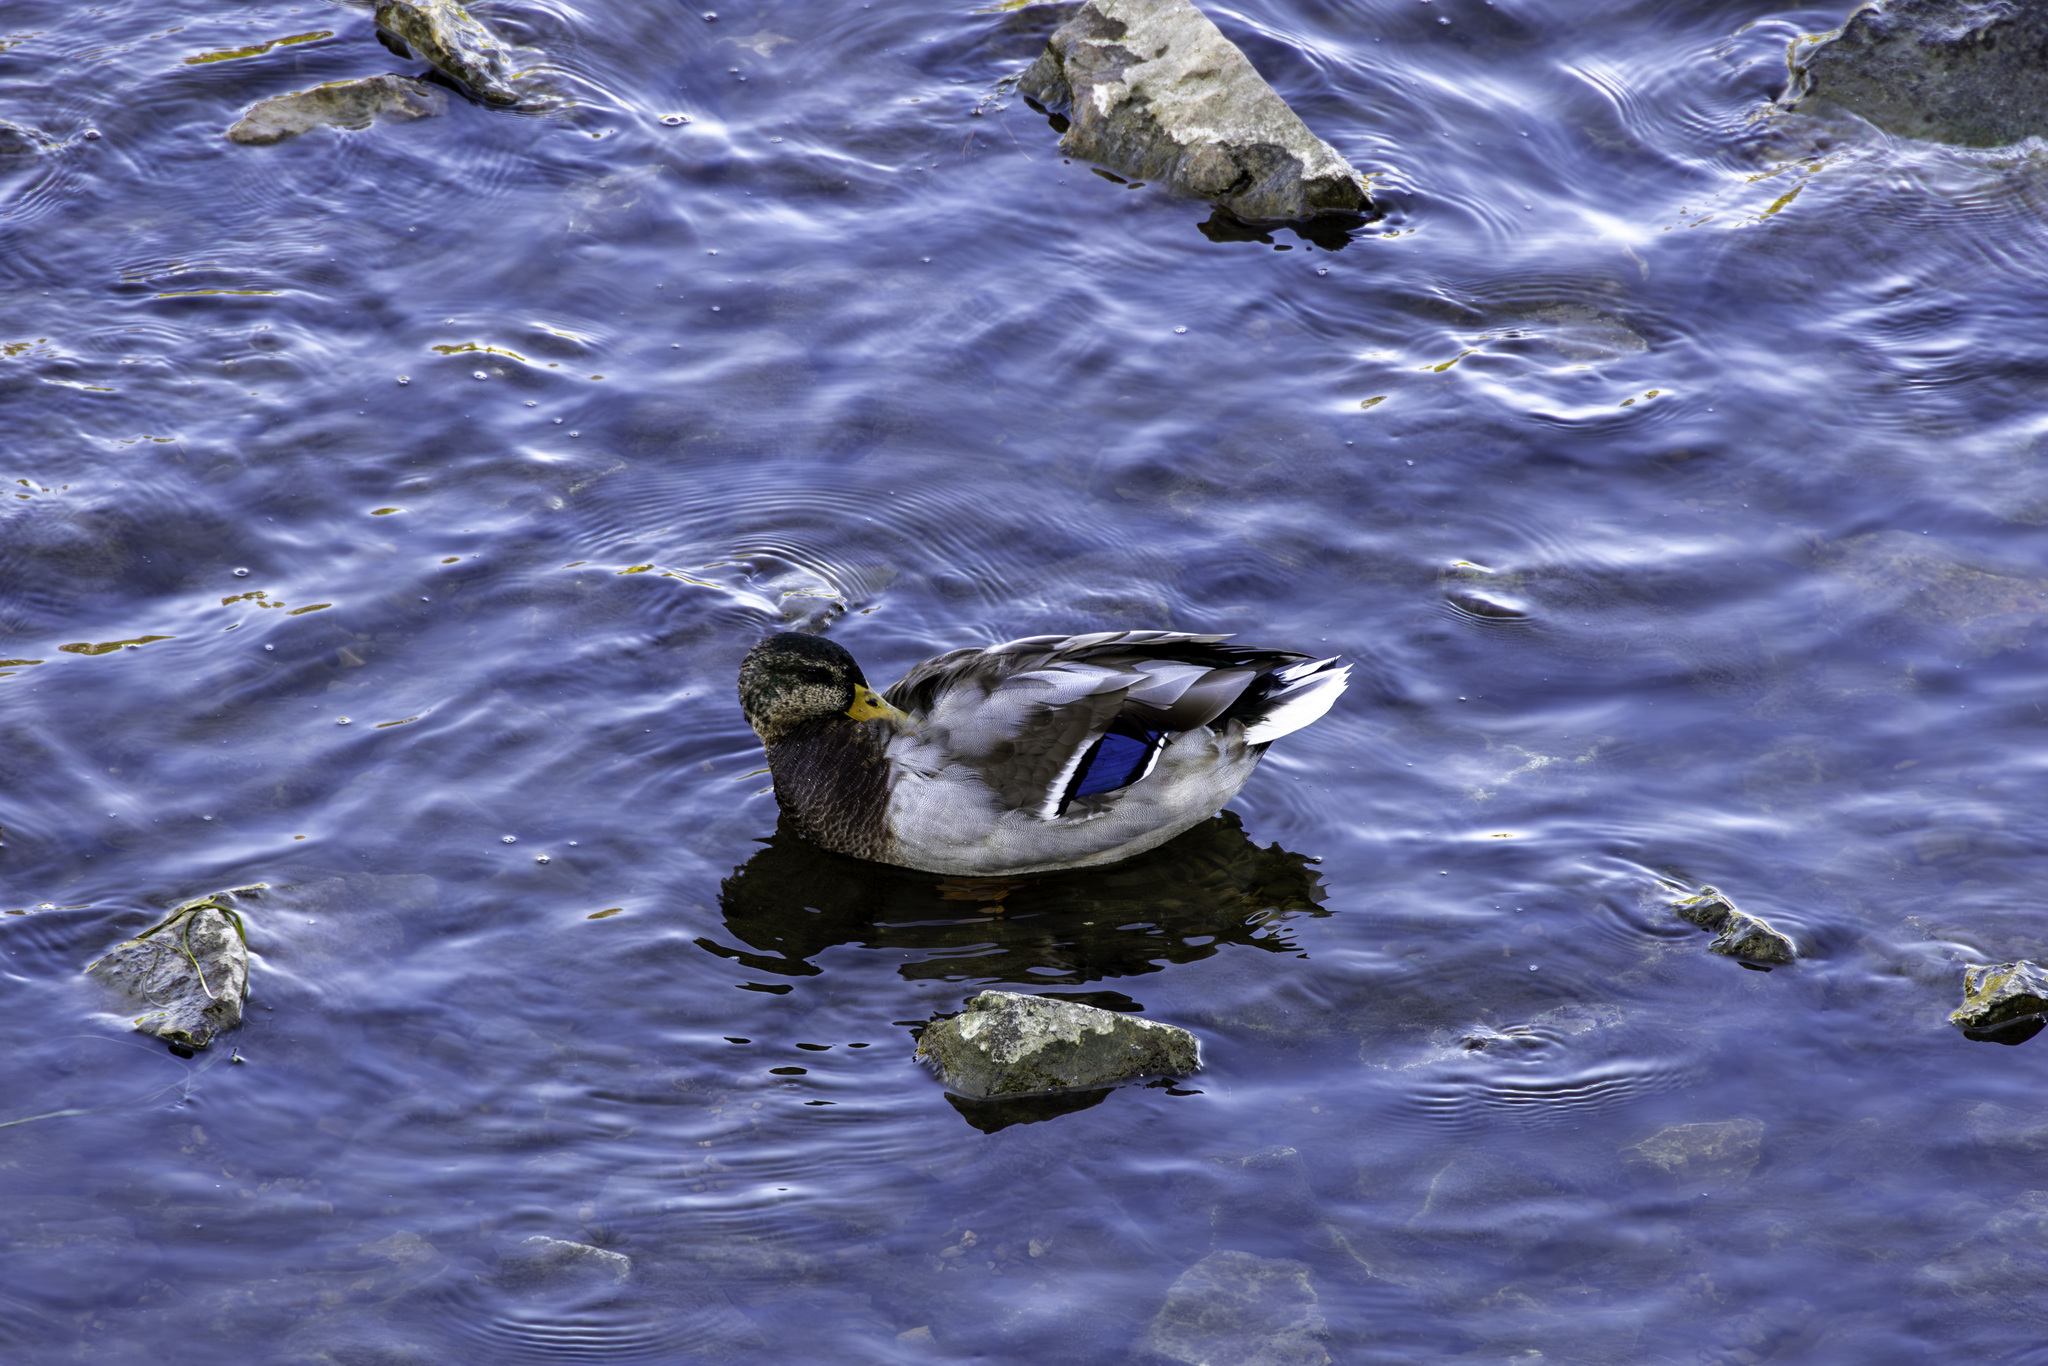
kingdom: Animalia
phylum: Chordata
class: Aves
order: Anseriformes
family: Anatidae
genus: Anas
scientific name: Anas platyrhynchos
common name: Mallard
